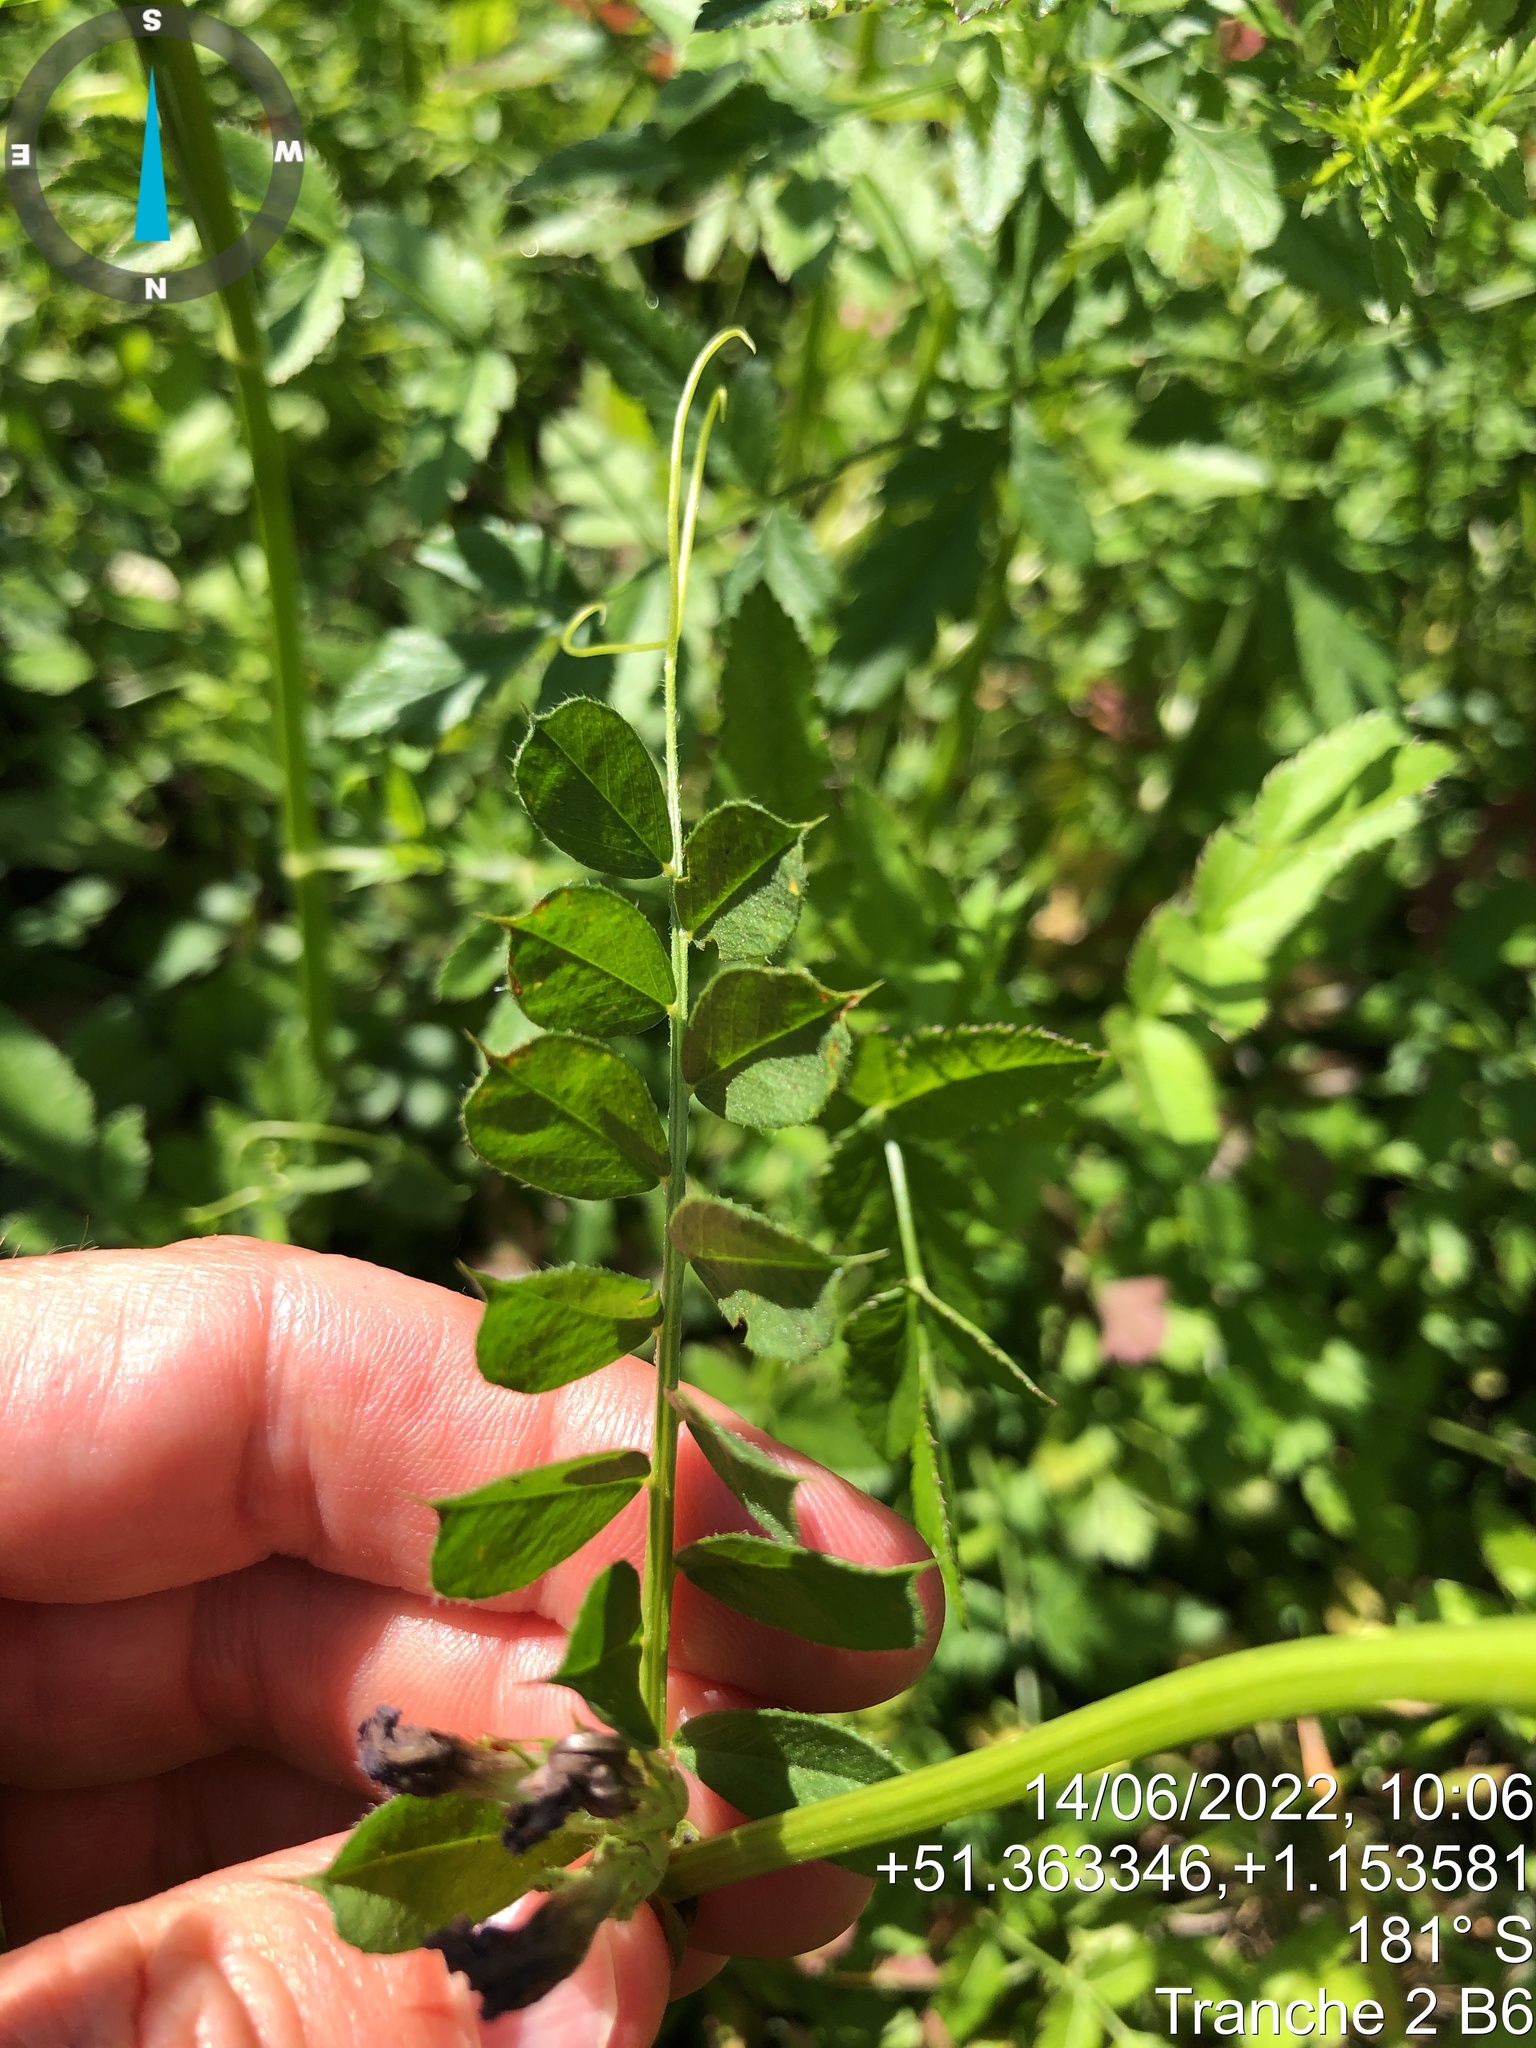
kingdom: Plantae
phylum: Tracheophyta
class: Magnoliopsida
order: Fabales
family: Fabaceae
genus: Vicia
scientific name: Vicia sativa
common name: Garden vetch
